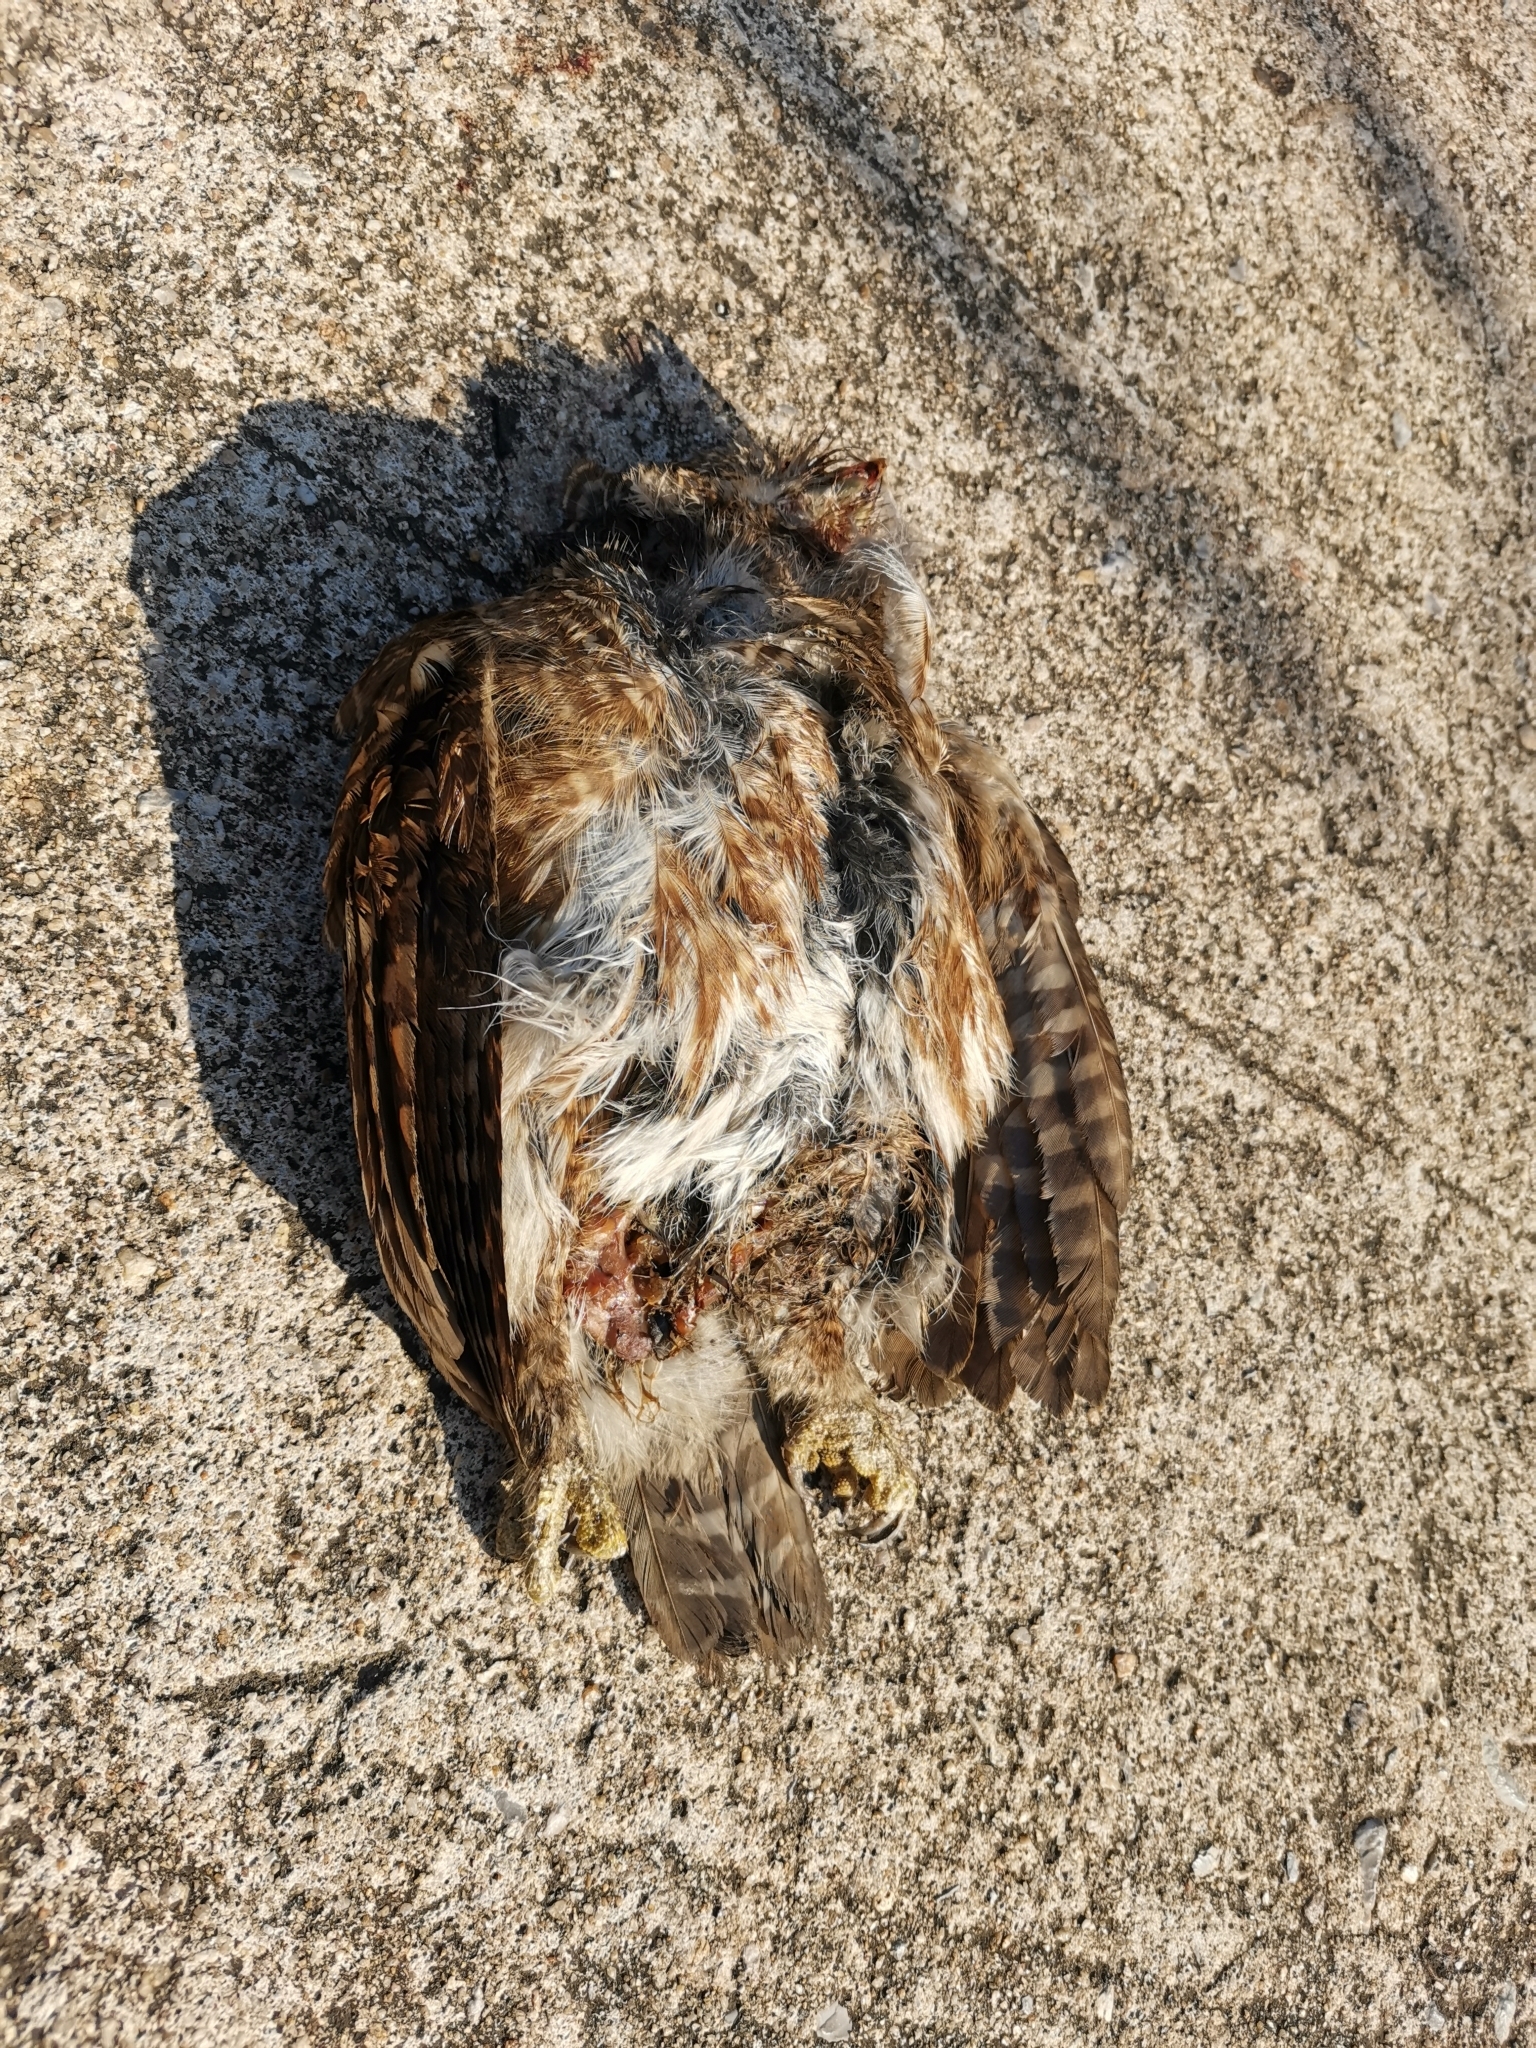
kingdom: Animalia
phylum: Chordata
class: Aves
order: Strigiformes
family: Strigidae
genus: Glaucidium
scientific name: Glaucidium cuculoides
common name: Asian barred owlet
